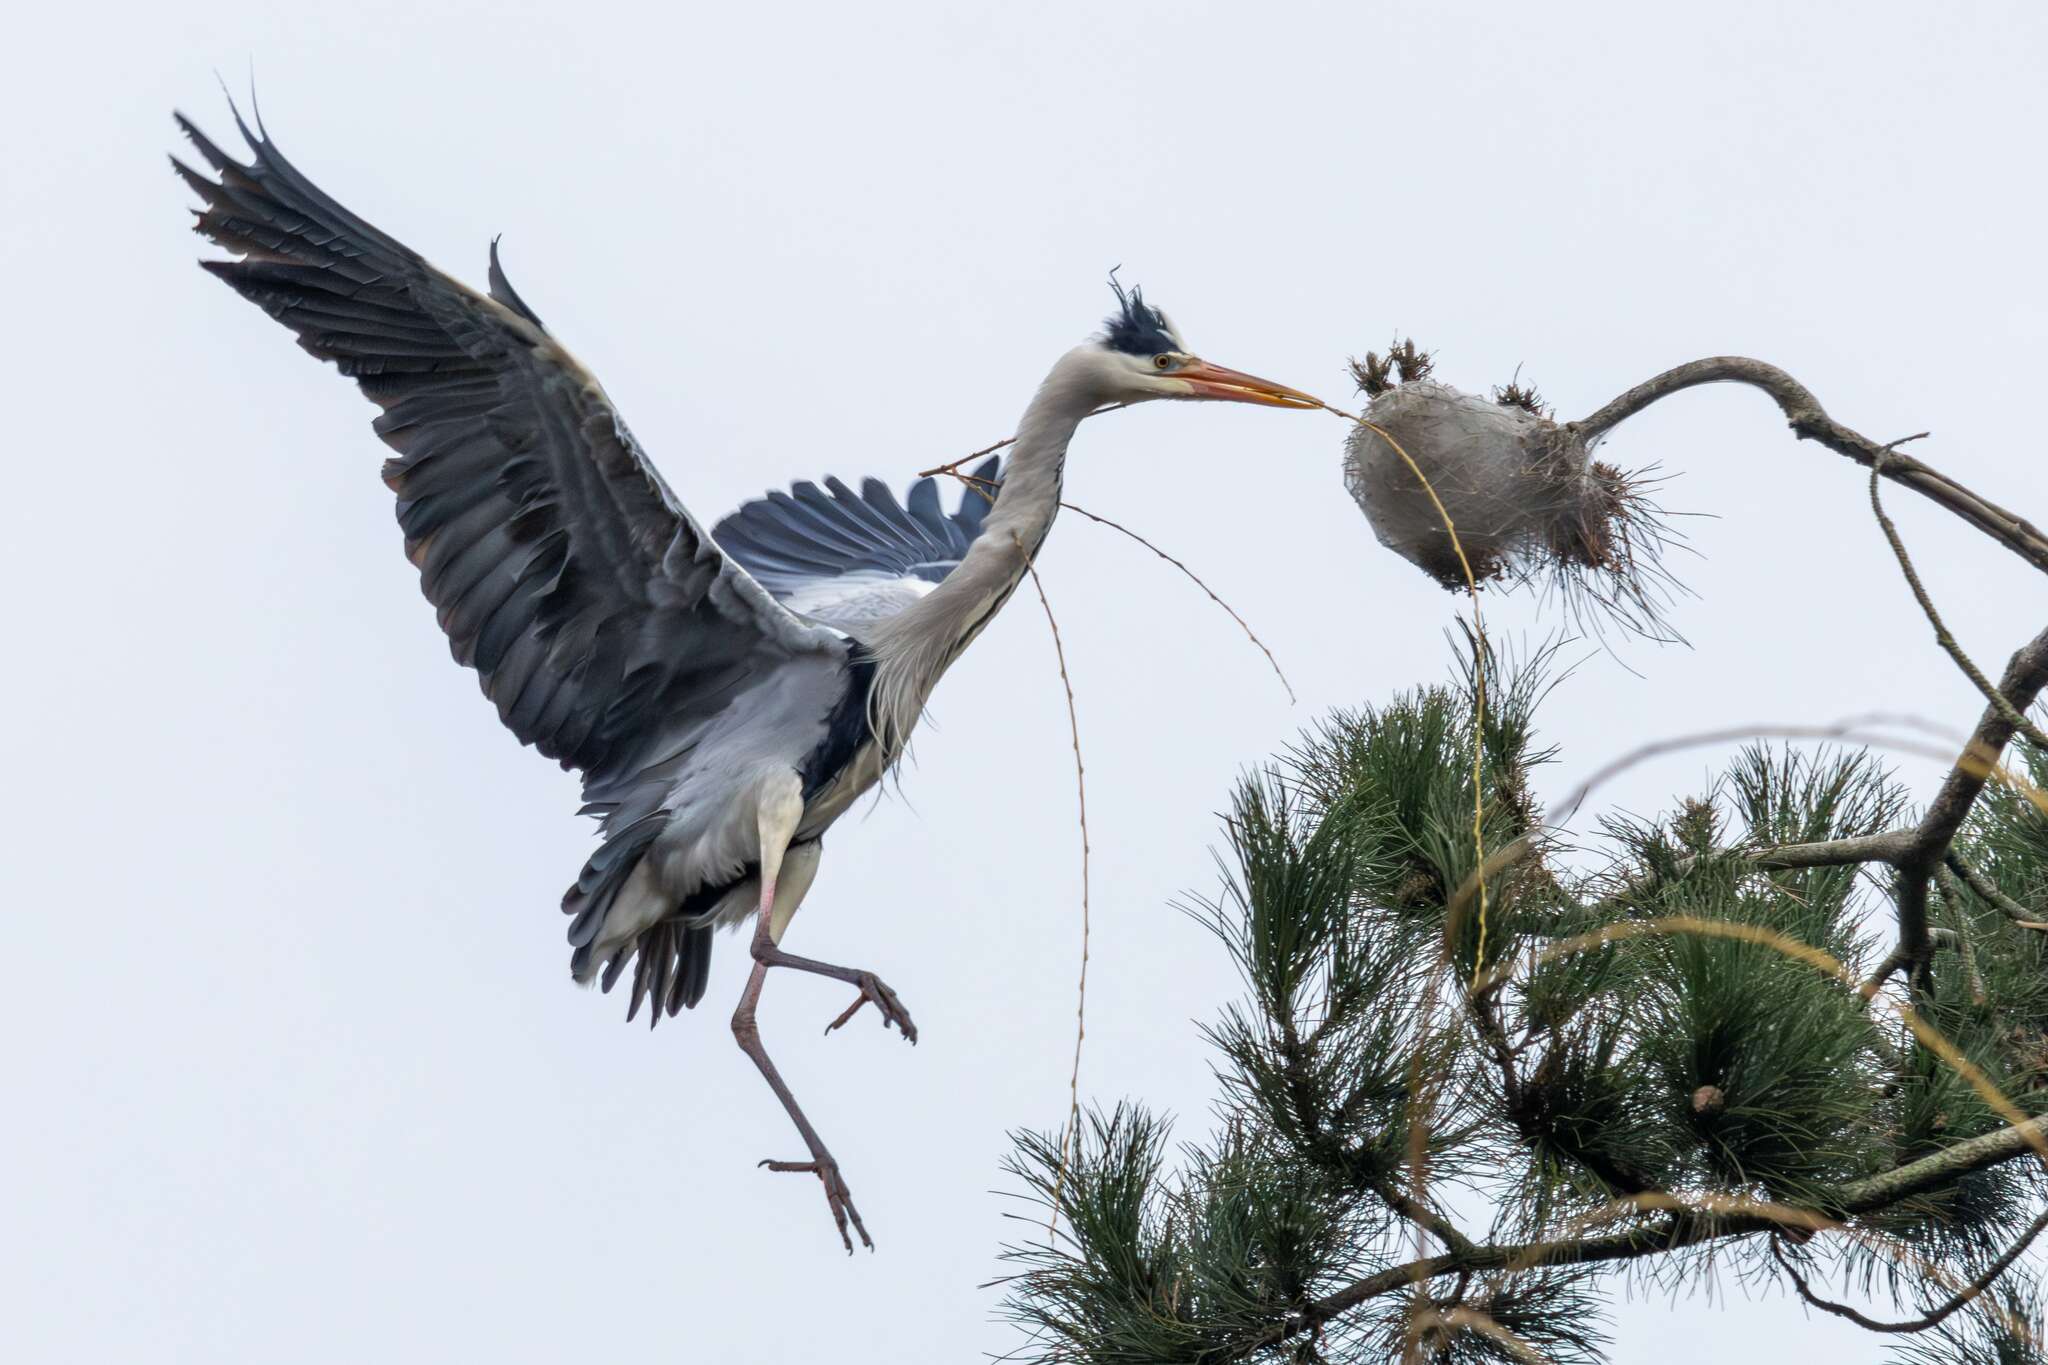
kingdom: Animalia
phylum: Chordata
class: Aves
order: Pelecaniformes
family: Ardeidae
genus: Ardea
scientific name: Ardea cinerea
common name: Grey heron
